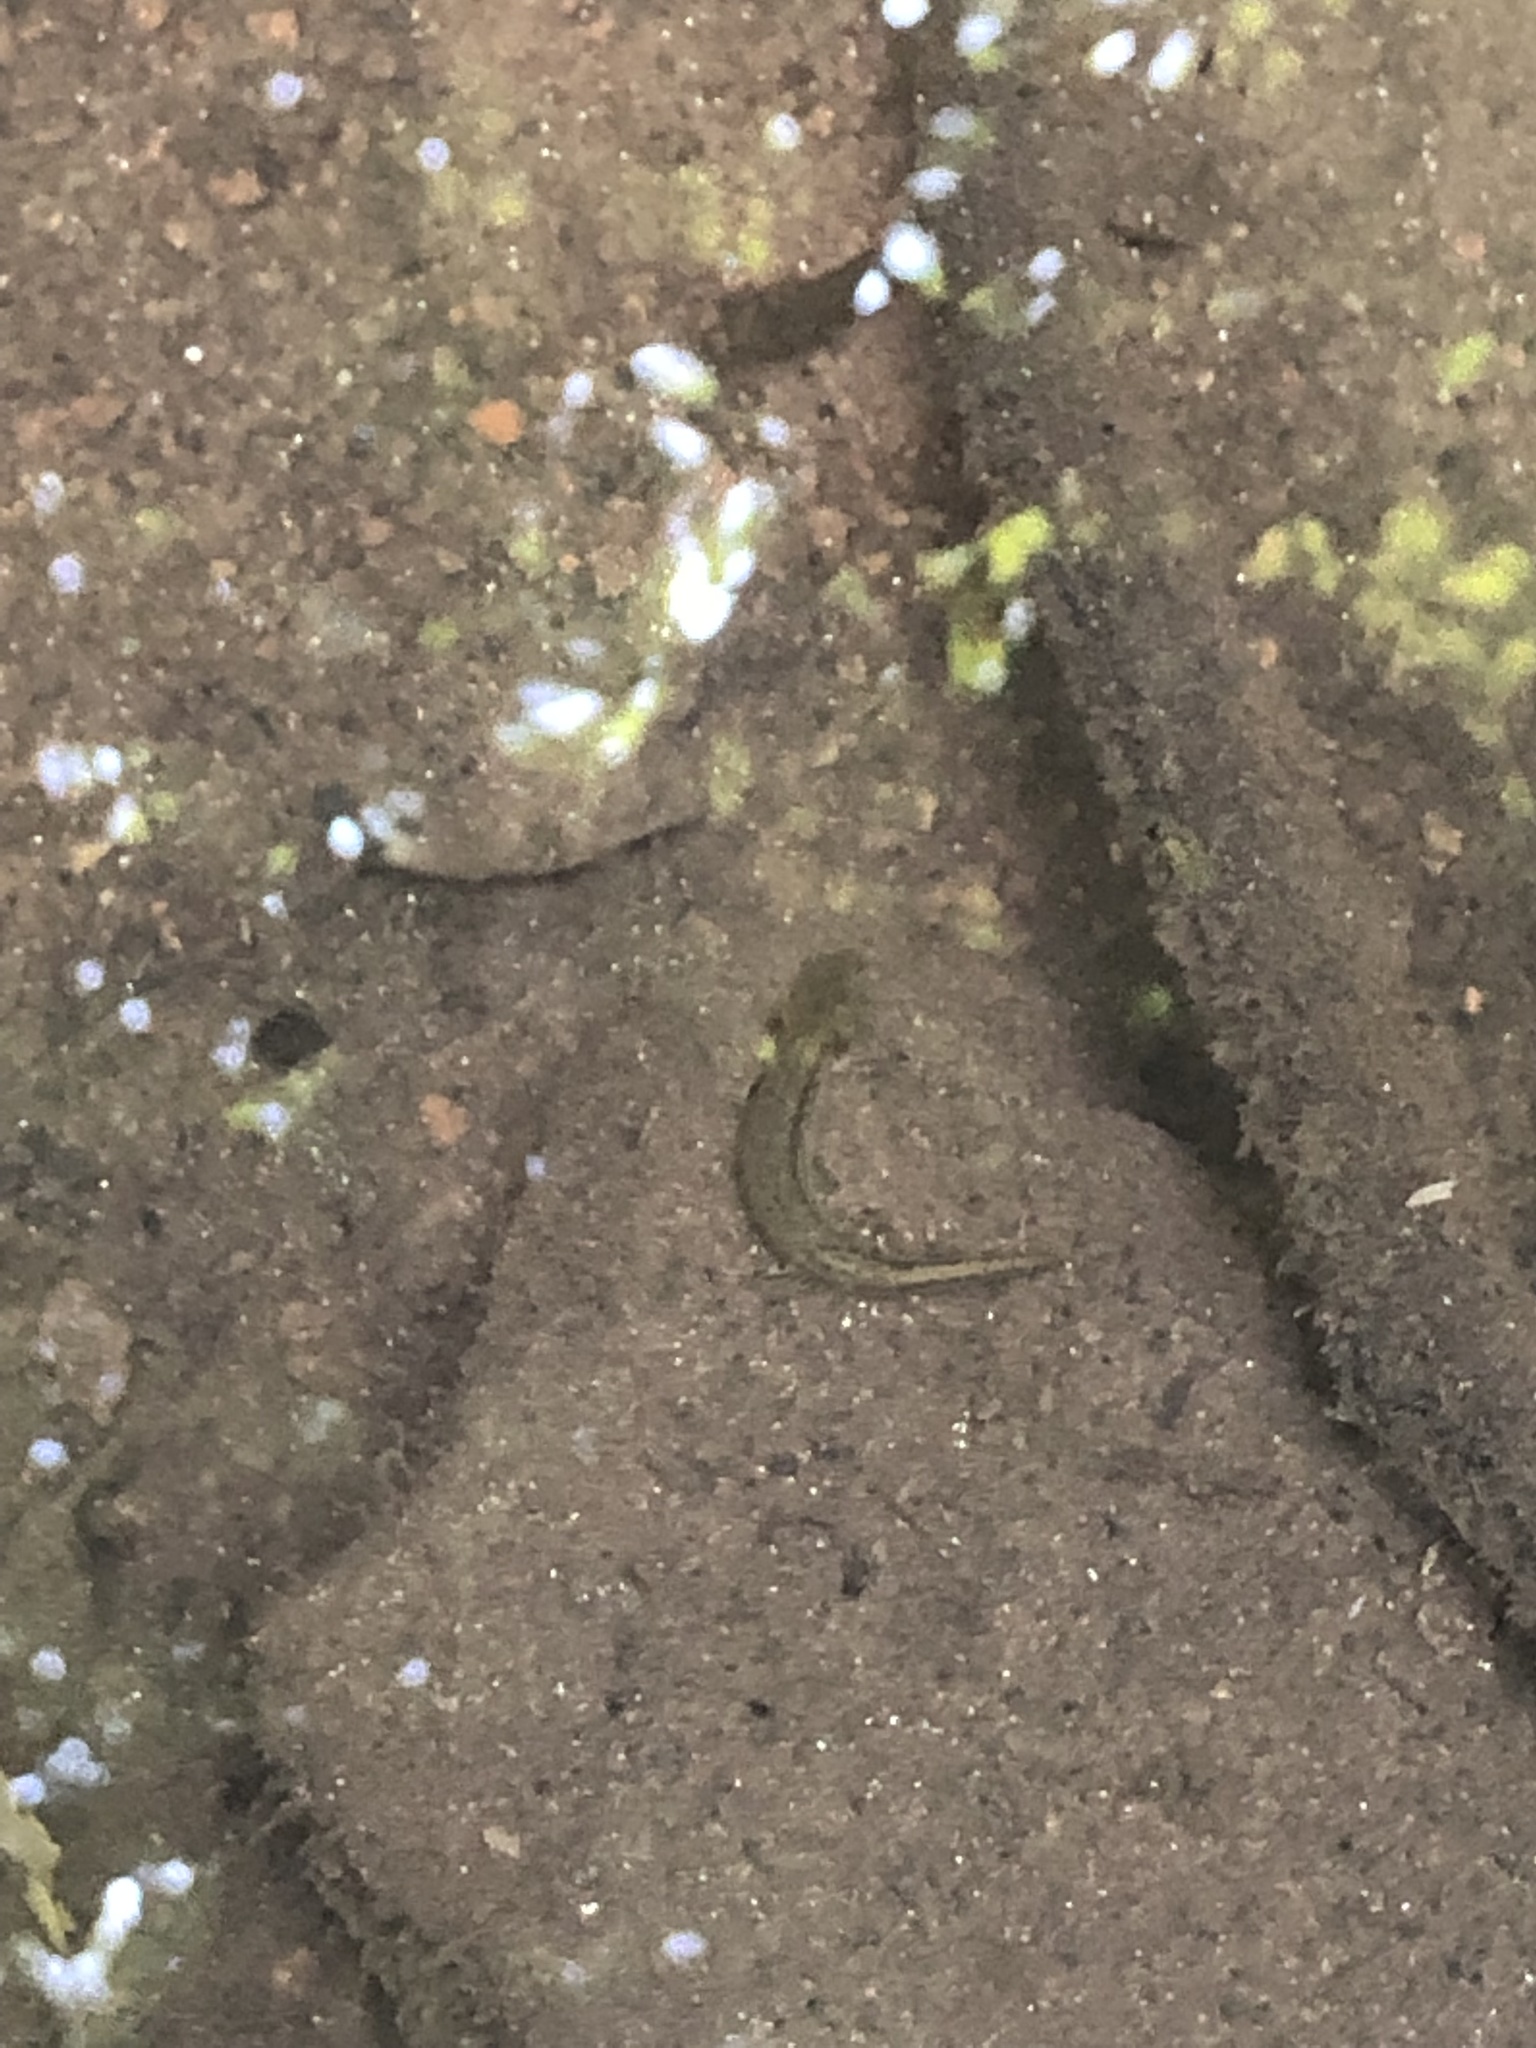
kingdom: Animalia
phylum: Chordata
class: Amphibia
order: Caudata
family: Plethodontidae
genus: Eurycea
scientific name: Eurycea cirrigera
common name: Southern two-lined salamander
